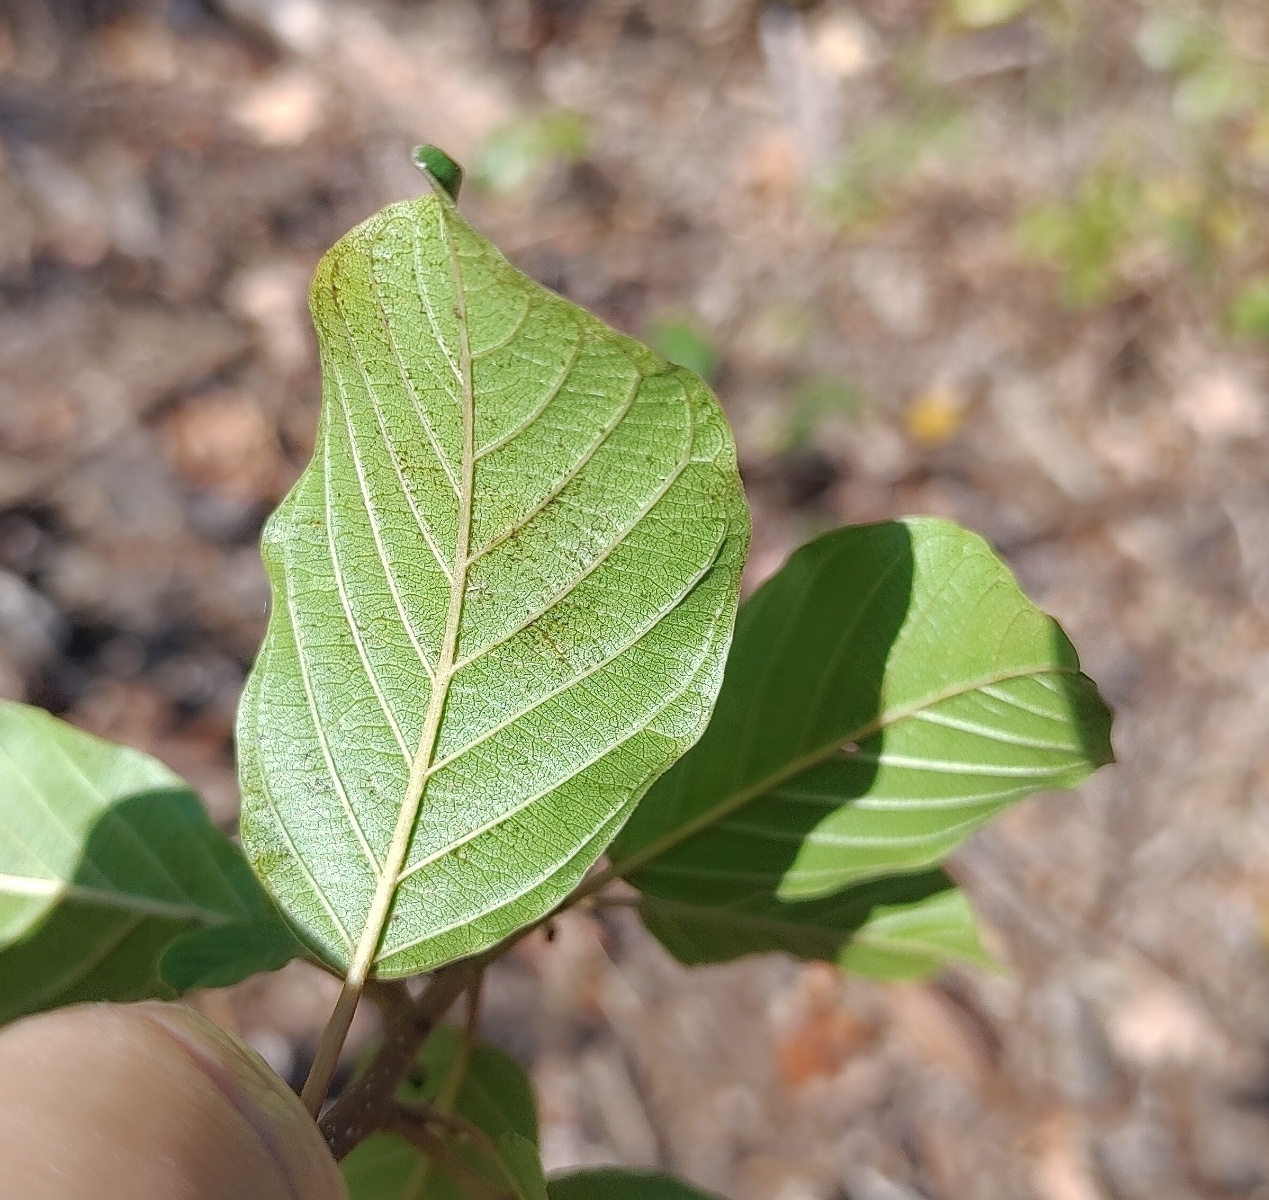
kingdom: Plantae
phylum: Tracheophyta
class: Magnoliopsida
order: Rosales
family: Rhamnaceae
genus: Frangula
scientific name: Frangula alnus
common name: Alder buckthorn
